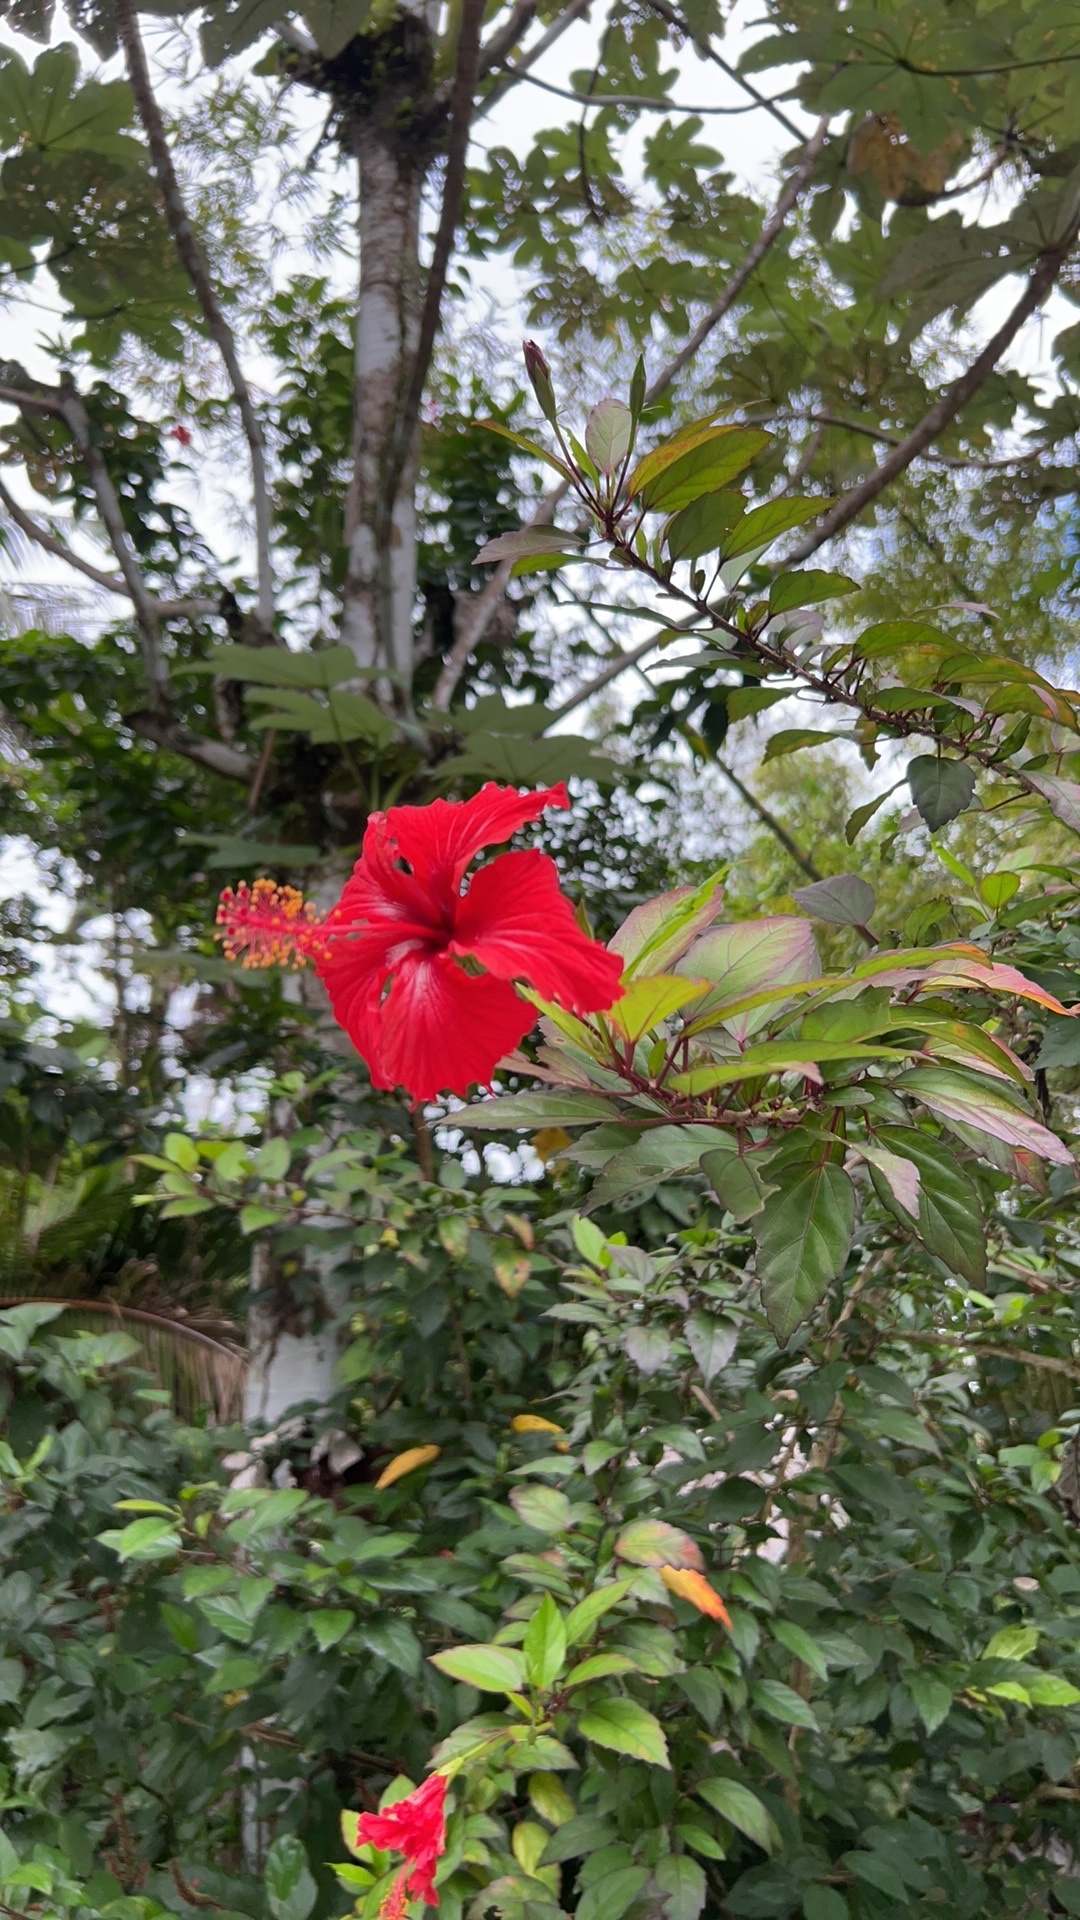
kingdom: Plantae
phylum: Tracheophyta
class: Magnoliopsida
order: Malvales
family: Malvaceae
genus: Hibiscus
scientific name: Hibiscus archeri
